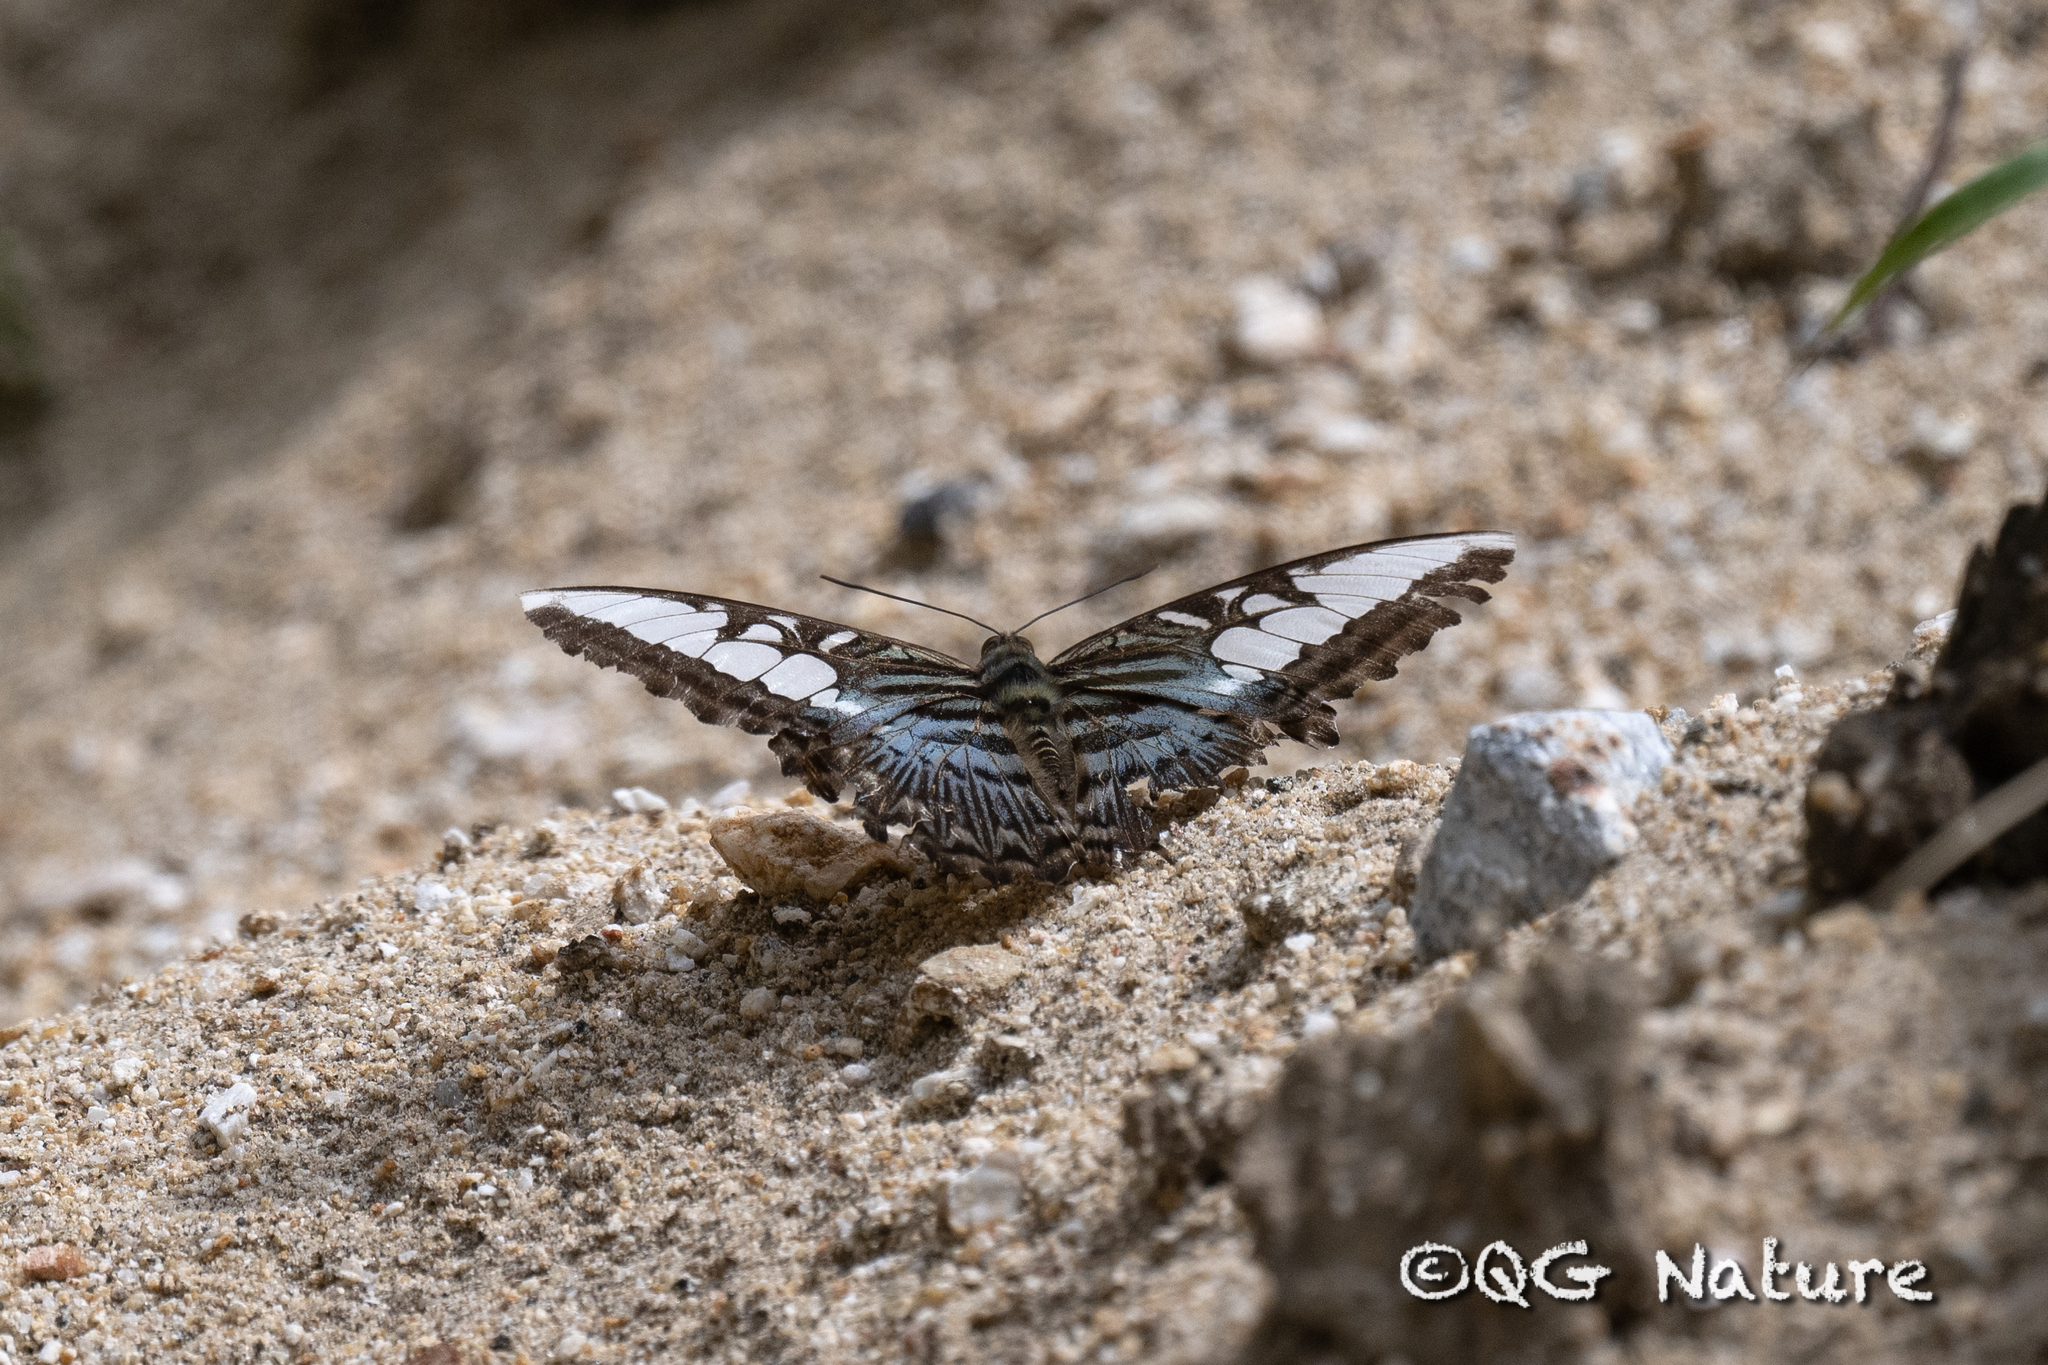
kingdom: Animalia
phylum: Arthropoda
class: Insecta
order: Lepidoptera
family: Nymphalidae
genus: Kallima
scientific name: Kallima sylvia
